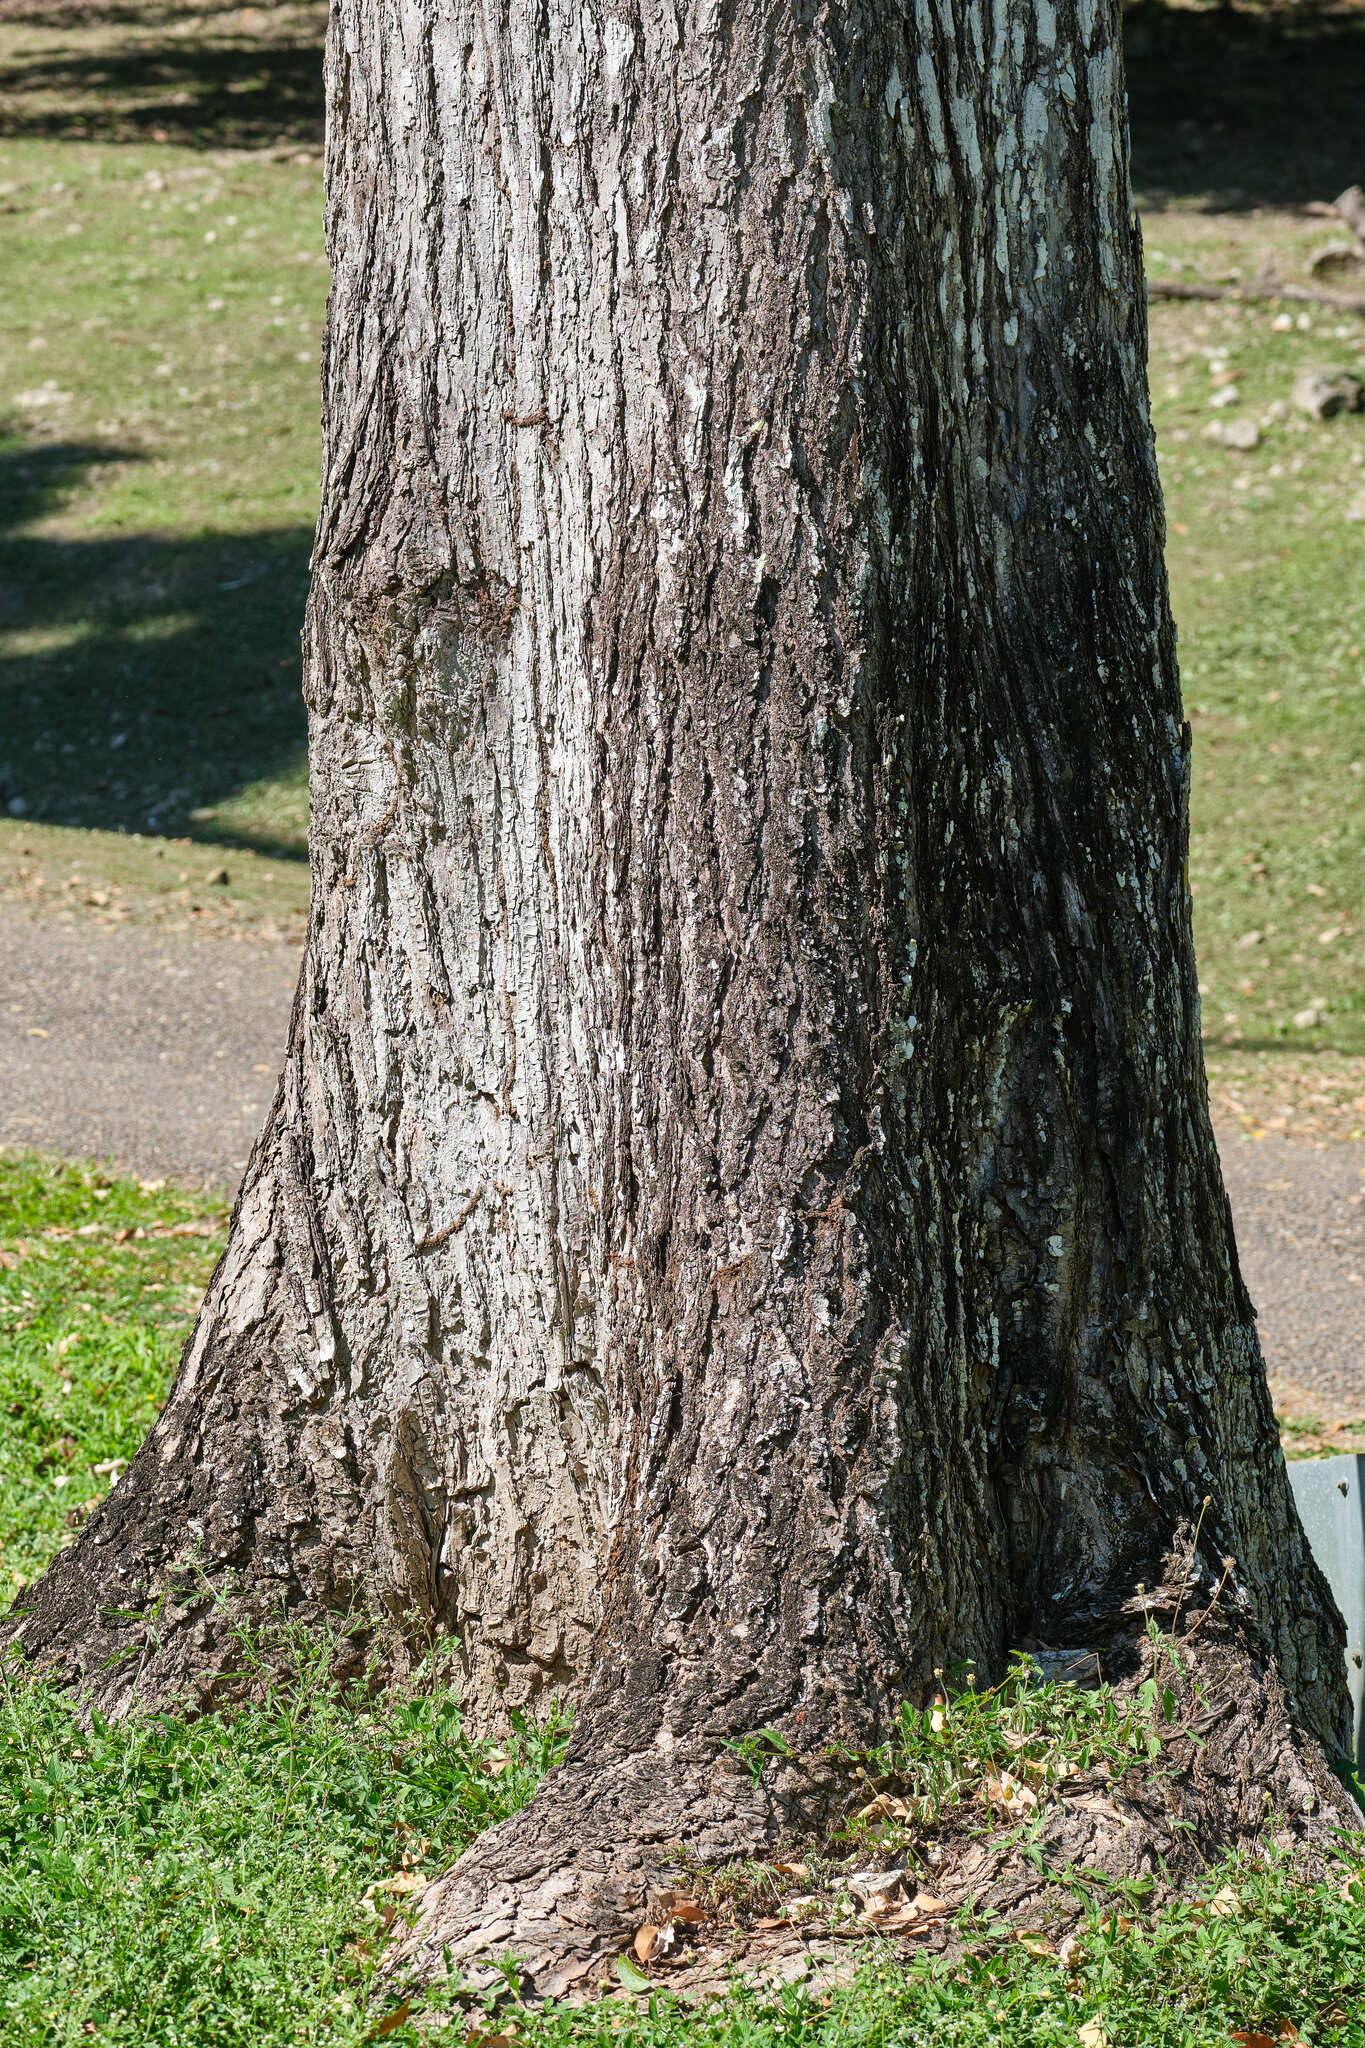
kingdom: Plantae
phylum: Tracheophyta
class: Magnoliopsida
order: Sapindales
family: Meliaceae
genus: Cedrela
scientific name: Cedrela odorata
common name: Red cedar
